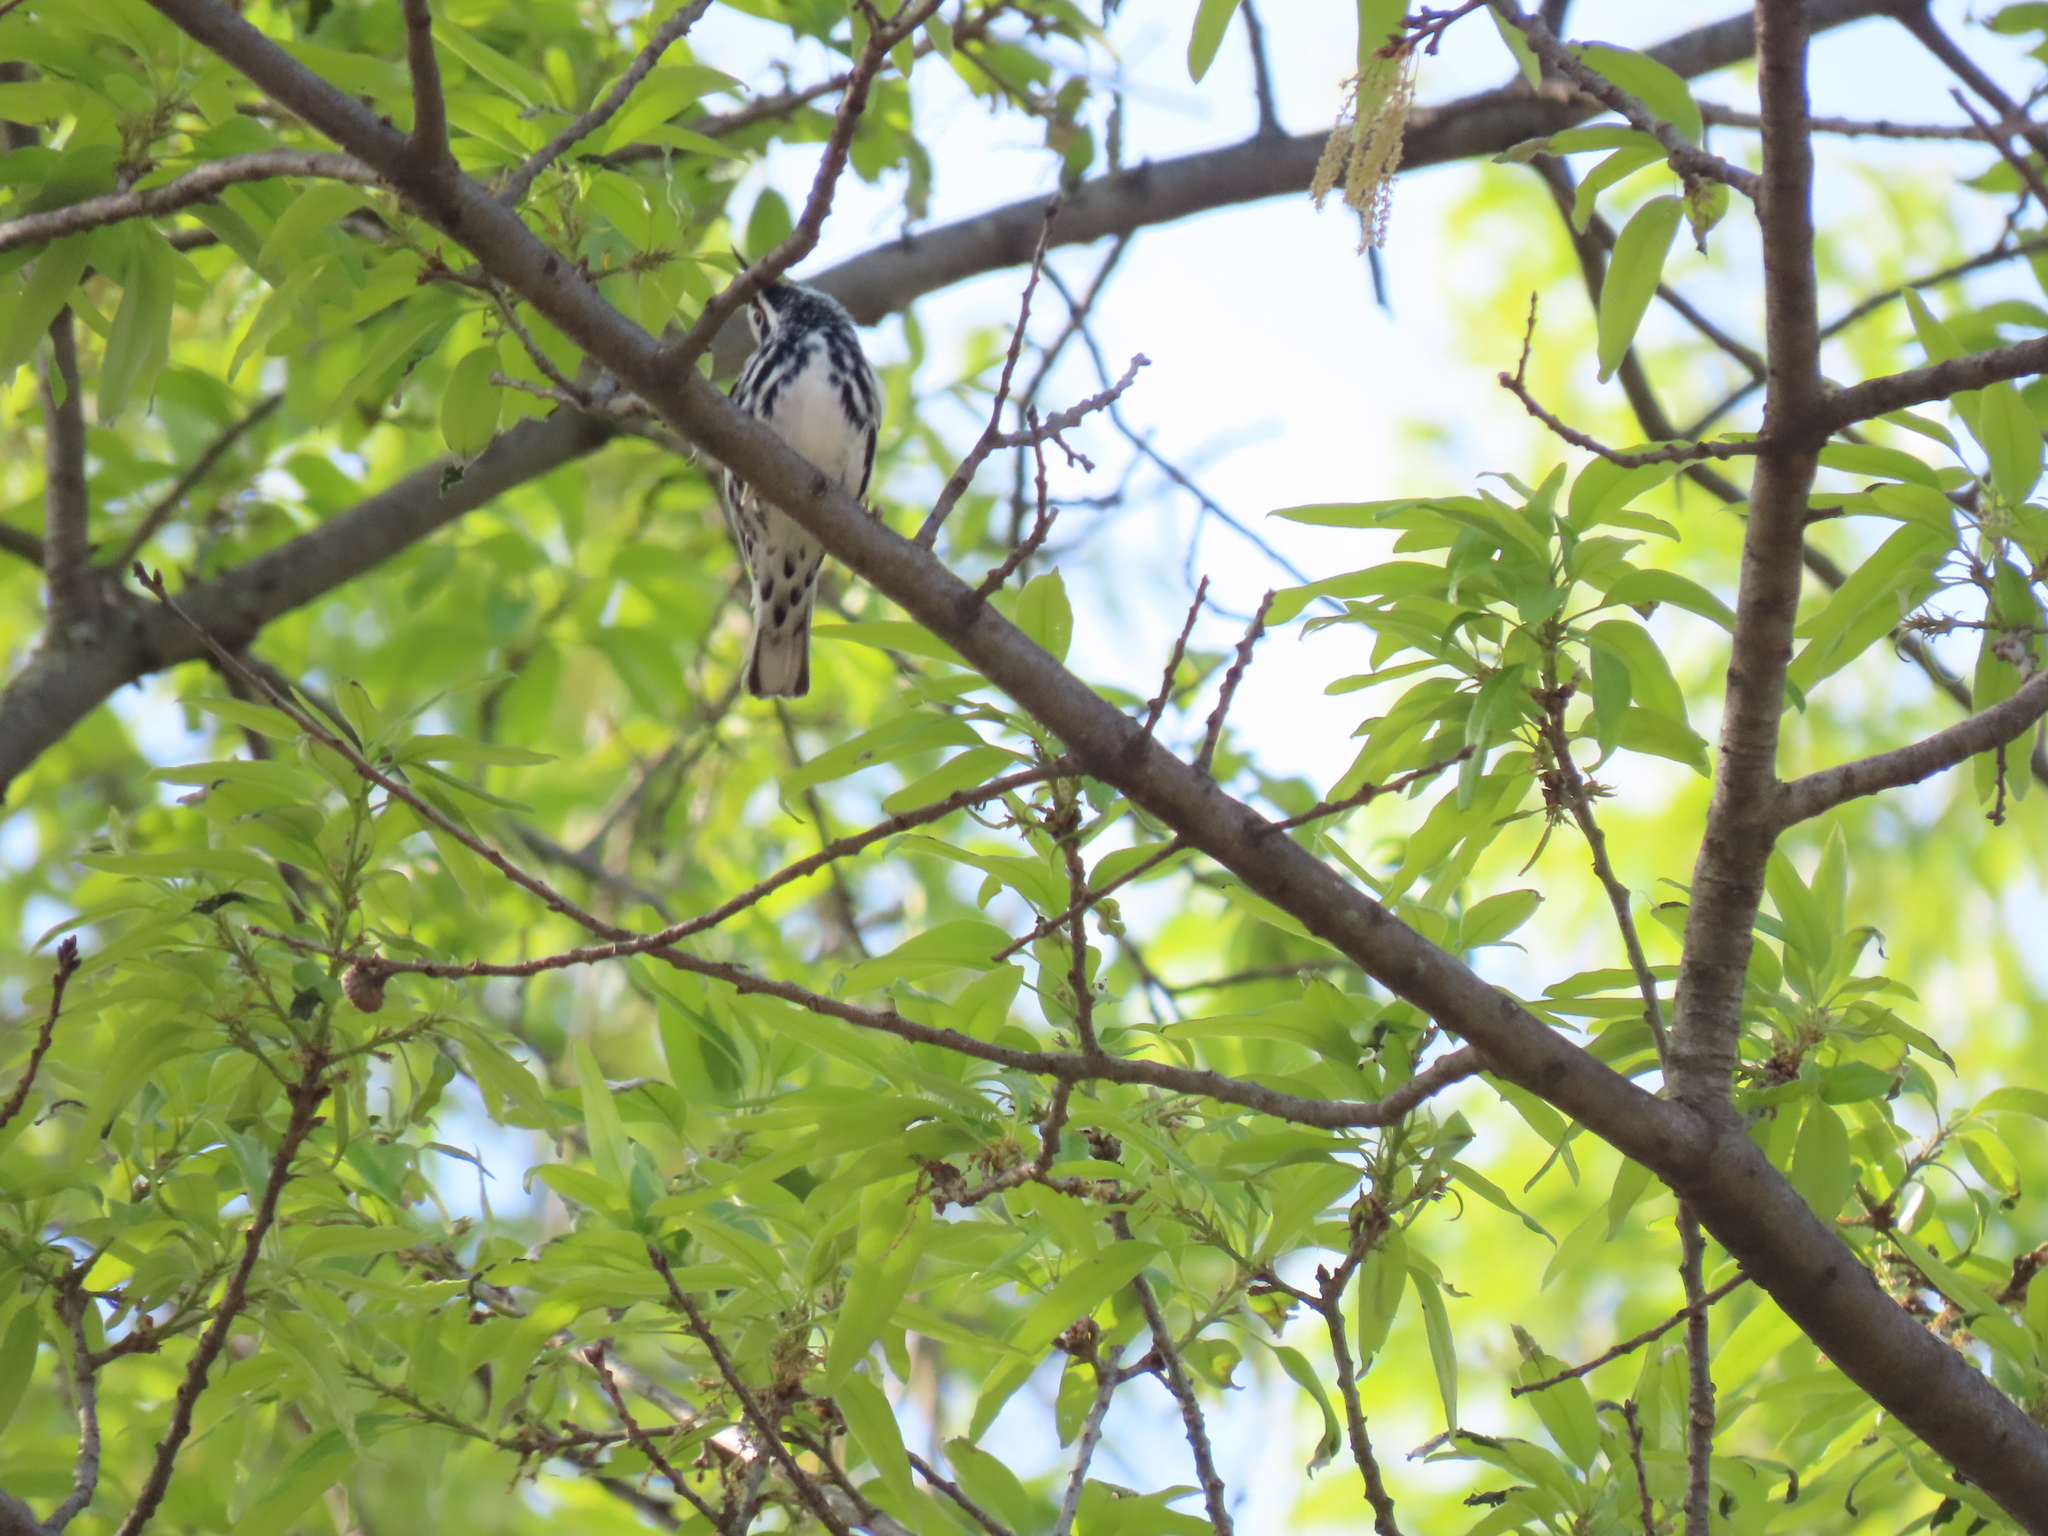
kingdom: Animalia
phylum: Chordata
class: Aves
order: Passeriformes
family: Parulidae
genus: Mniotilta
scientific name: Mniotilta varia
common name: Black-and-white warbler
